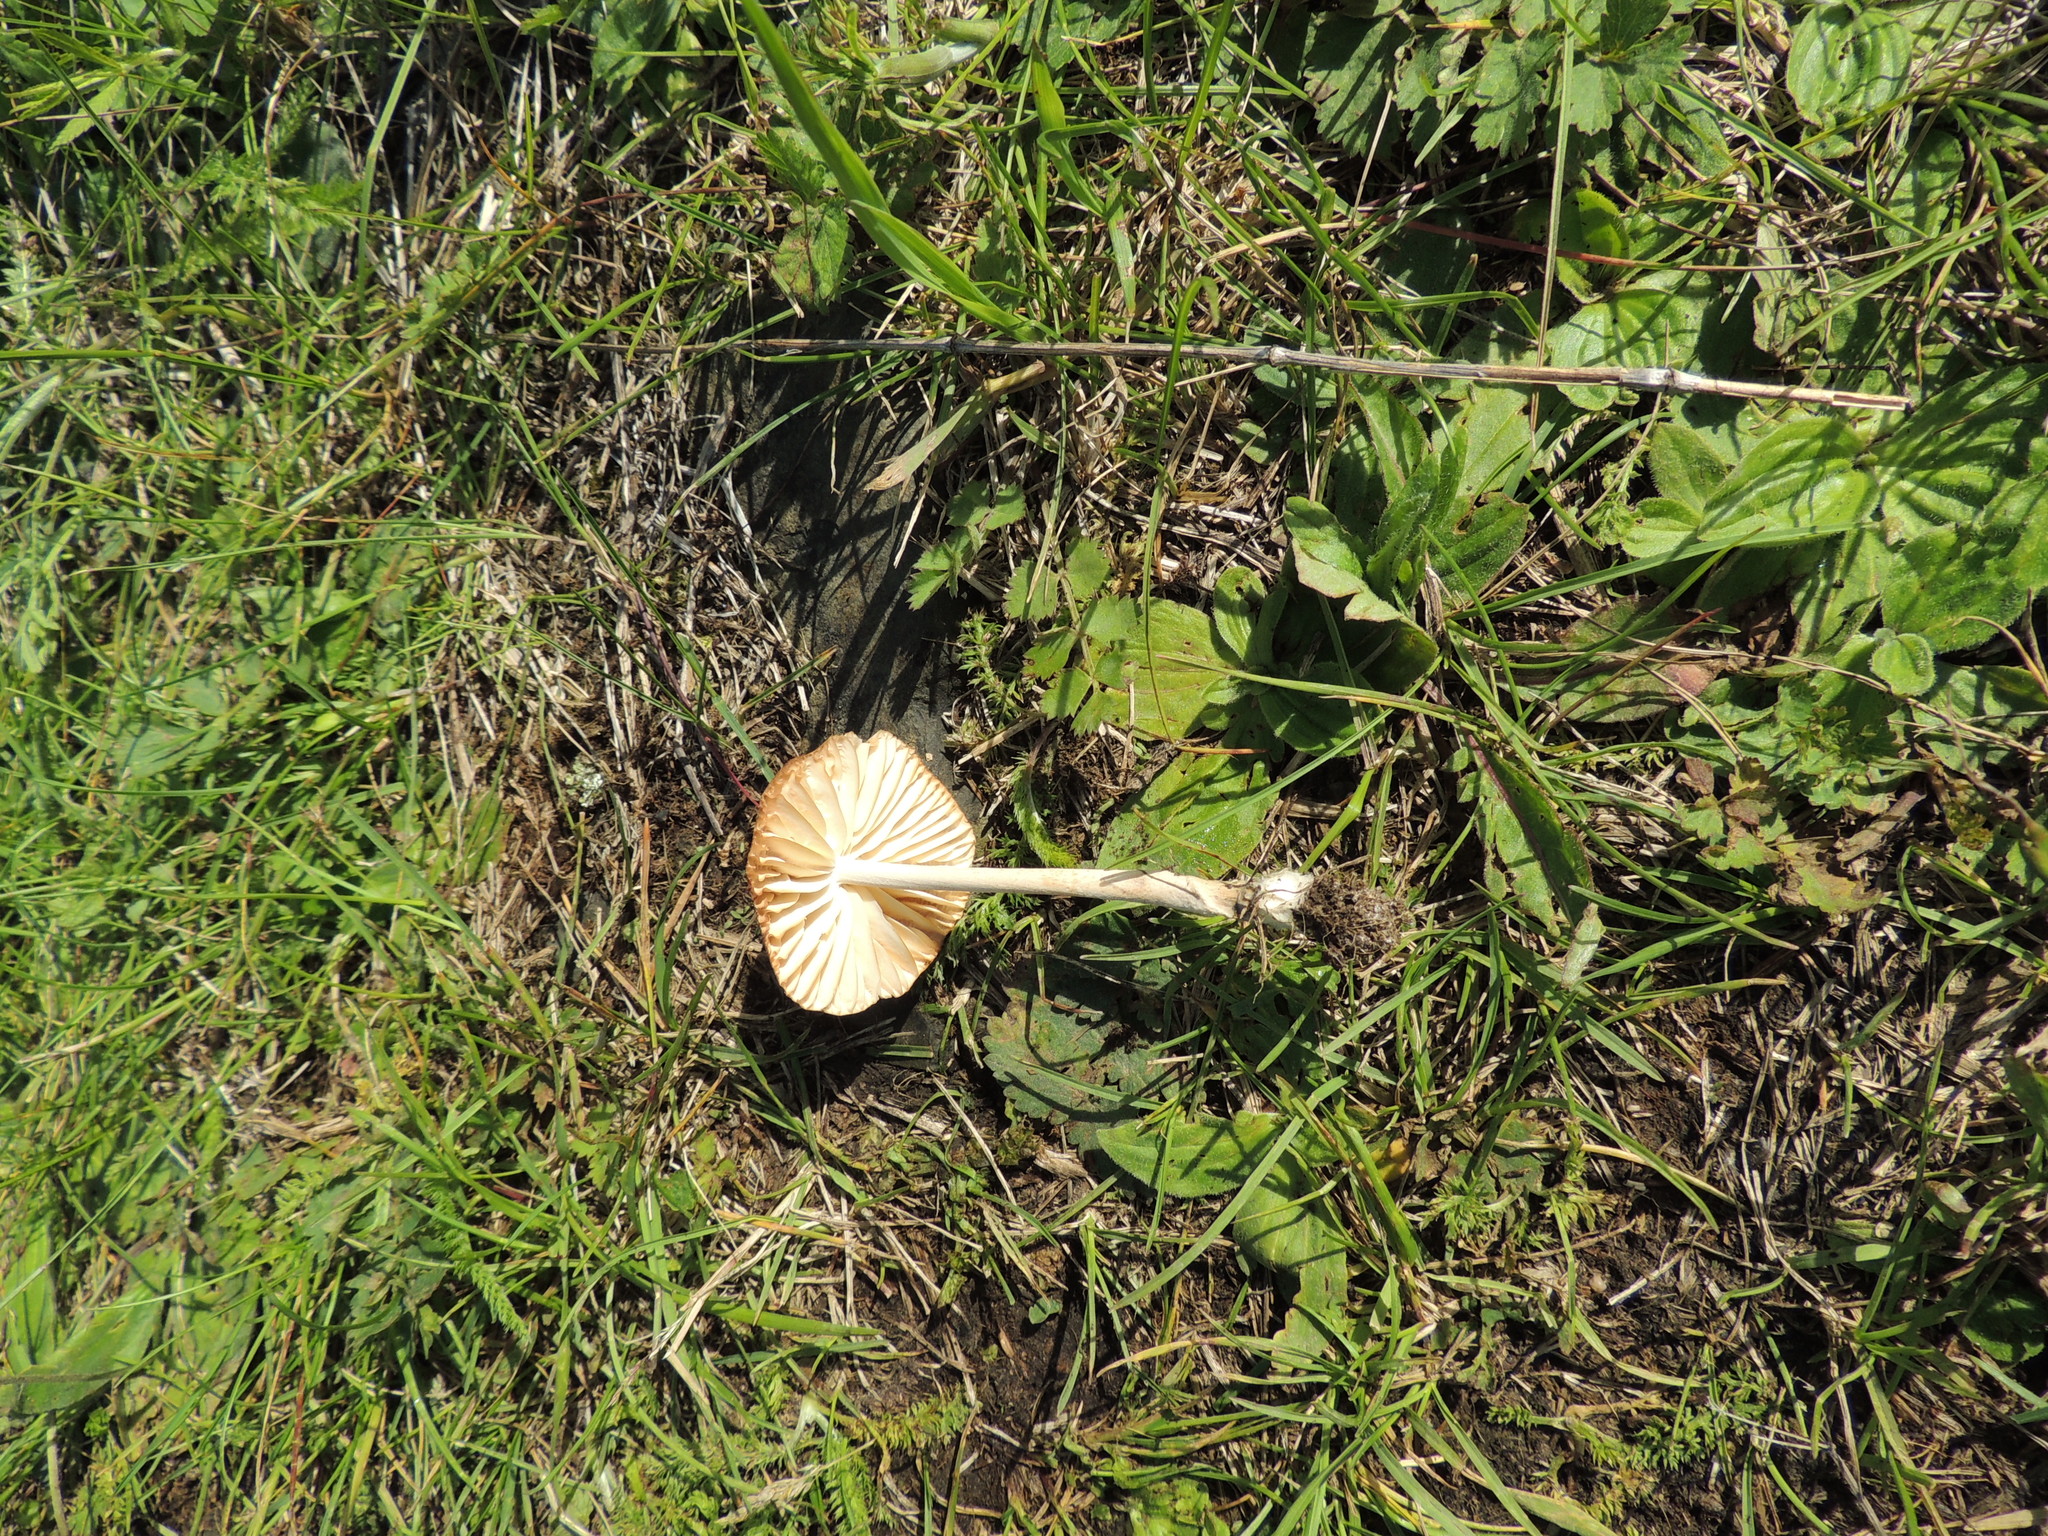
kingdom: Fungi
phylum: Basidiomycota
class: Agaricomycetes
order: Agaricales
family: Marasmiaceae
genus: Marasmius
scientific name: Marasmius oreades
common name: Fairy ring champignon
